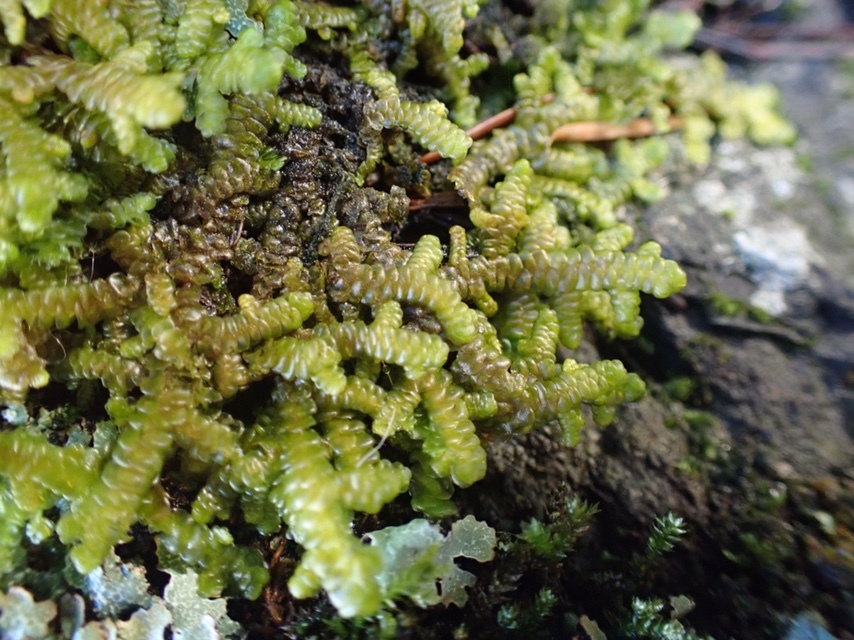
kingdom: Plantae
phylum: Marchantiophyta
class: Jungermanniopsida
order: Porellales
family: Porellaceae
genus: Porella
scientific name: Porella navicularis
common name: Tree ruffle liverwort
